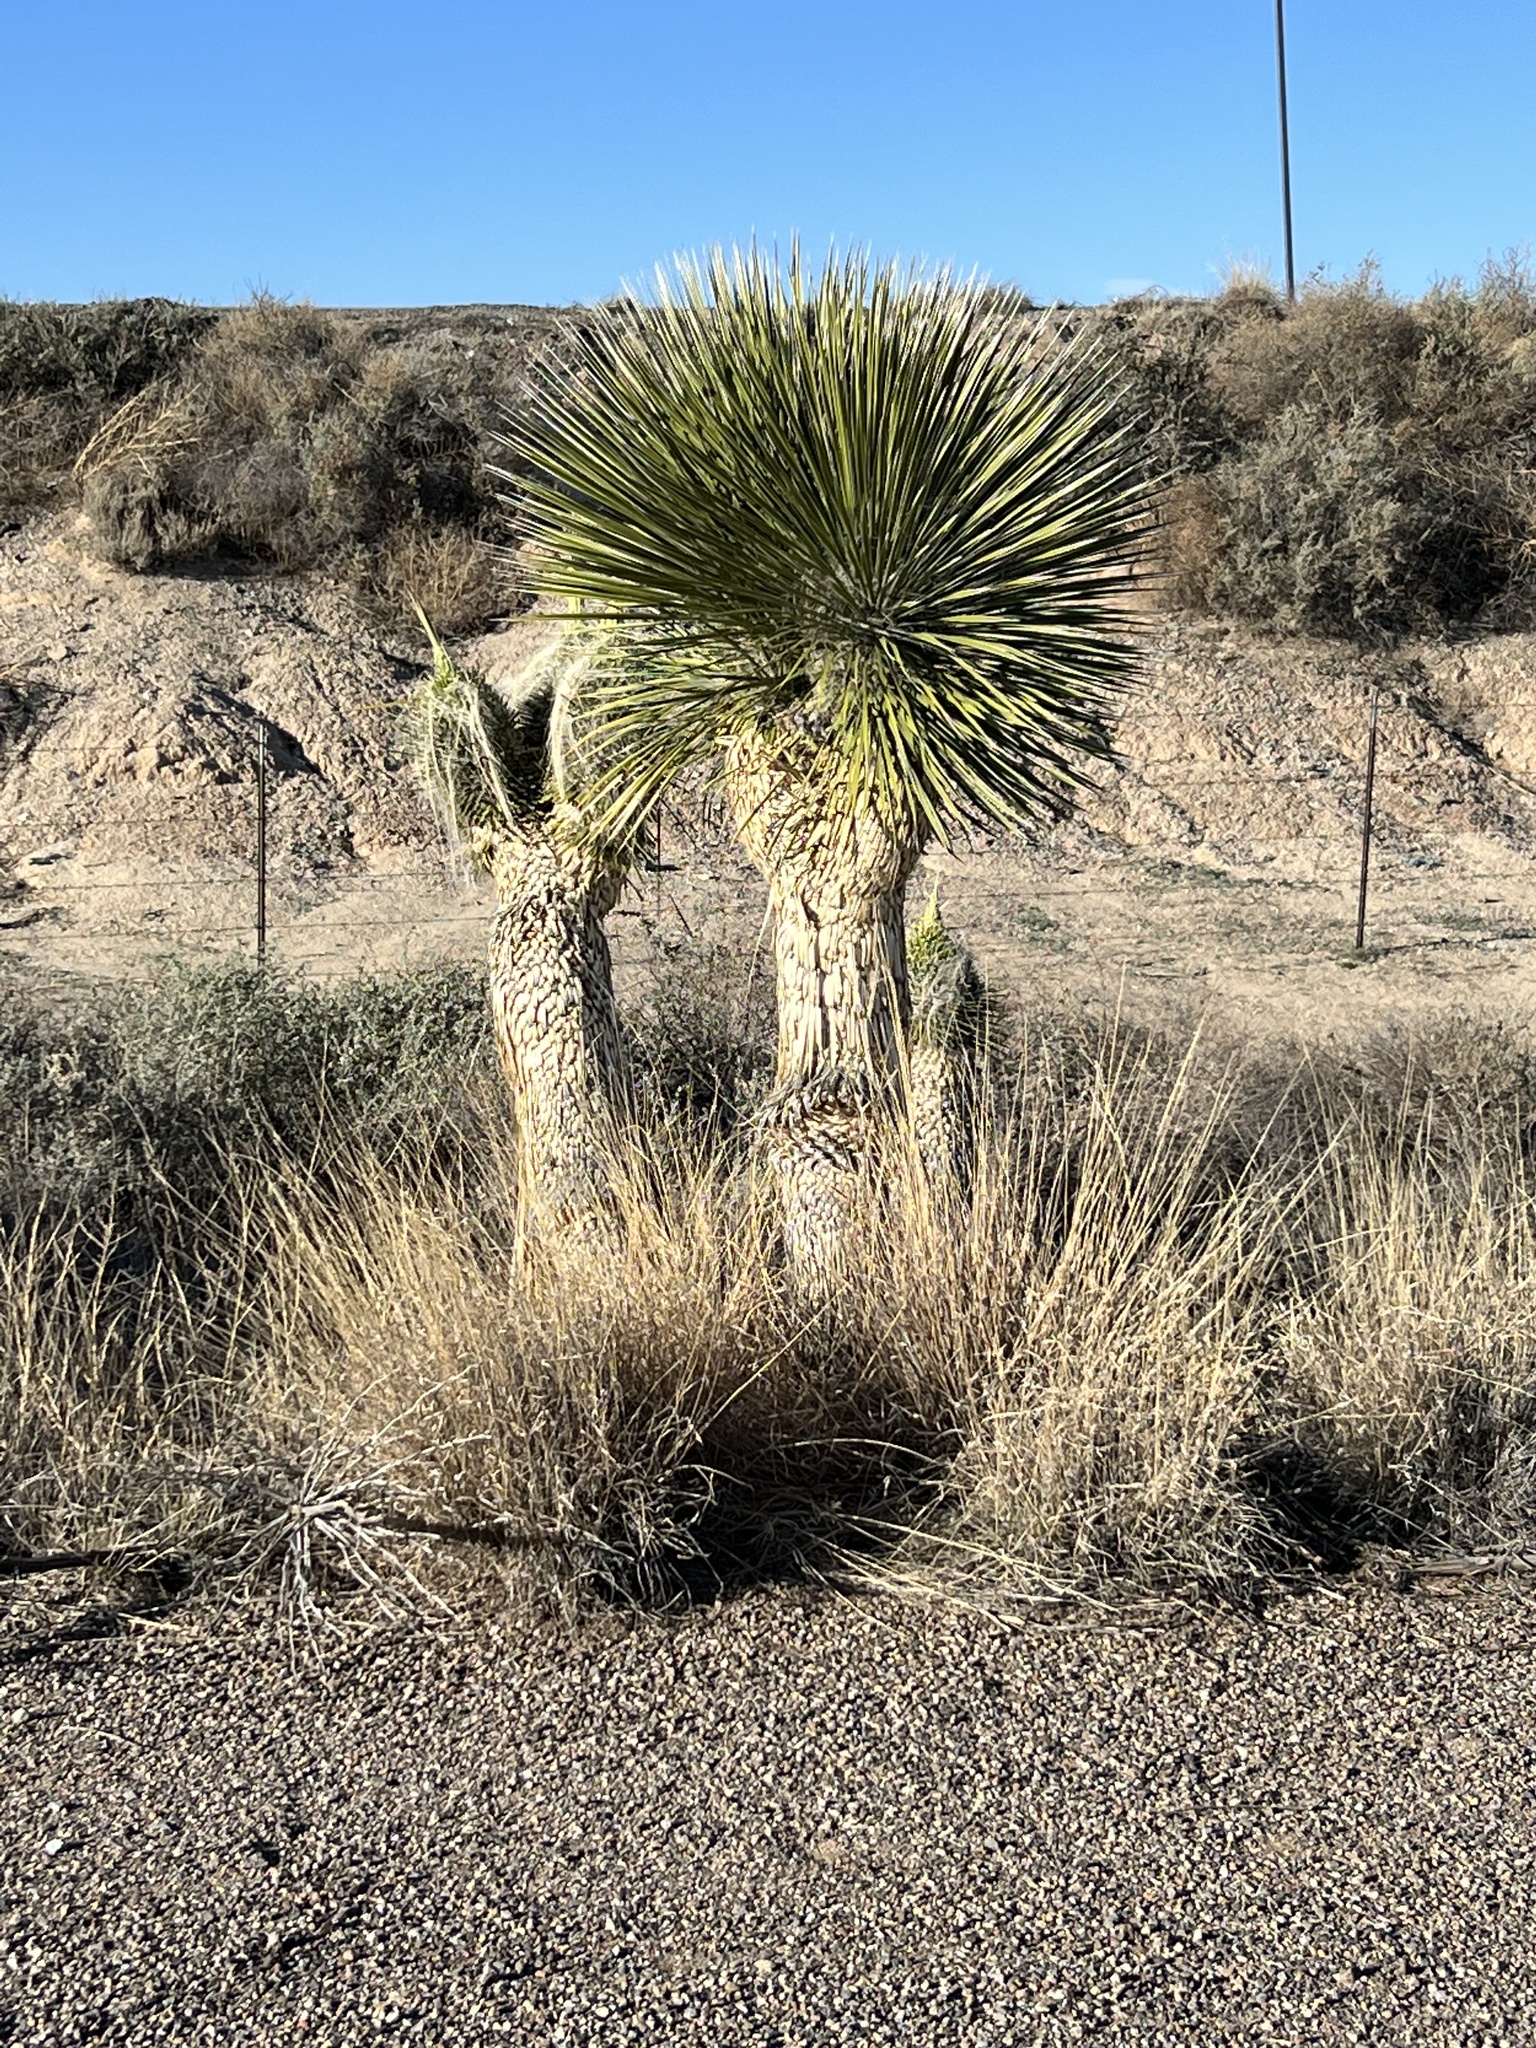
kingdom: Plantae
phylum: Tracheophyta
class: Liliopsida
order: Asparagales
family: Asparagaceae
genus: Yucca
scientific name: Yucca elata
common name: Palmella
